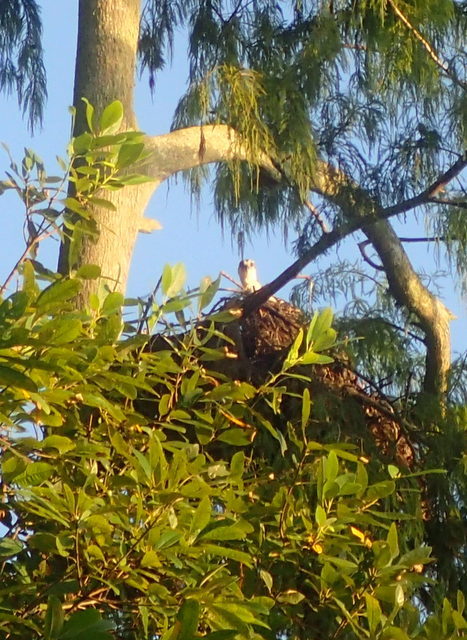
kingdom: Animalia
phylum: Chordata
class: Aves
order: Accipitriformes
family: Pandionidae
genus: Pandion
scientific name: Pandion haliaetus
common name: Osprey
